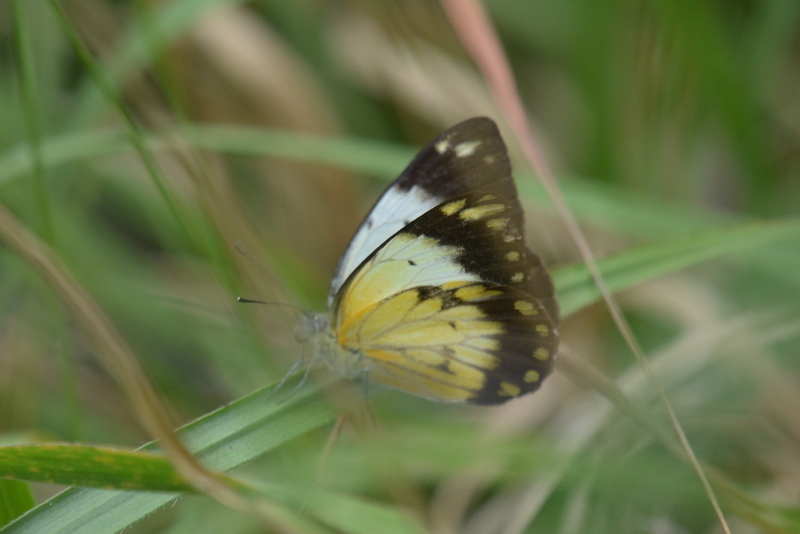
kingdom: Animalia
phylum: Arthropoda
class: Insecta
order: Lepidoptera
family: Pieridae
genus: Belenois
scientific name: Belenois creona
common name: African caper white
